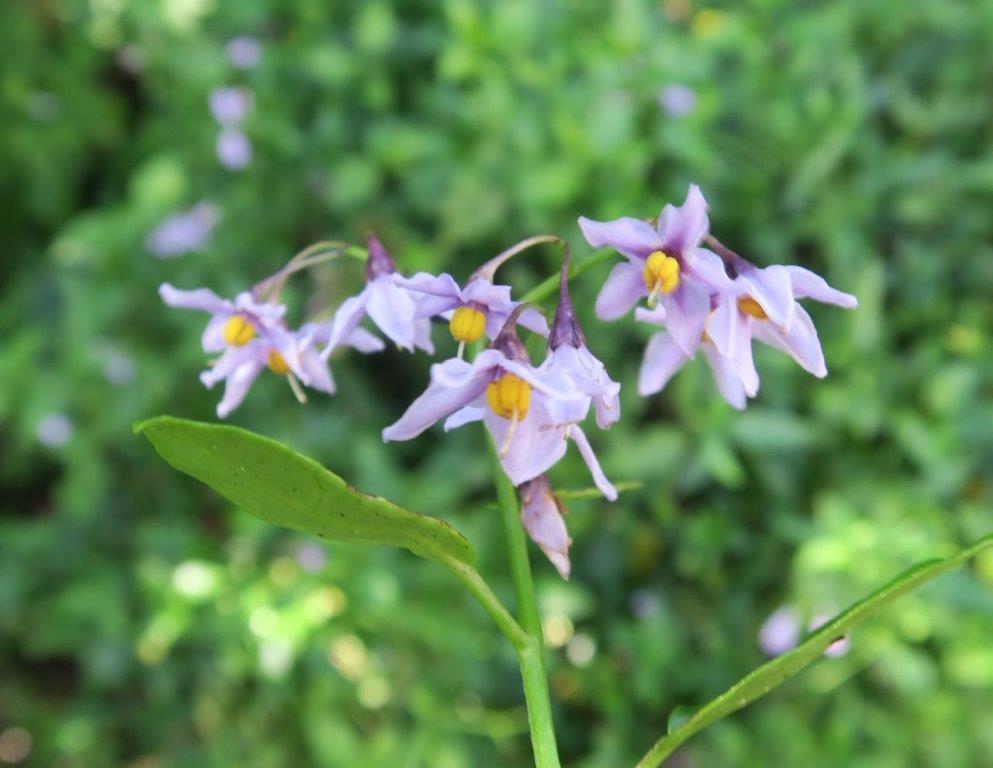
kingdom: Plantae
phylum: Tracheophyta
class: Magnoliopsida
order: Solanales
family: Solanaceae
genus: Solanum
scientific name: Solanum africanum
